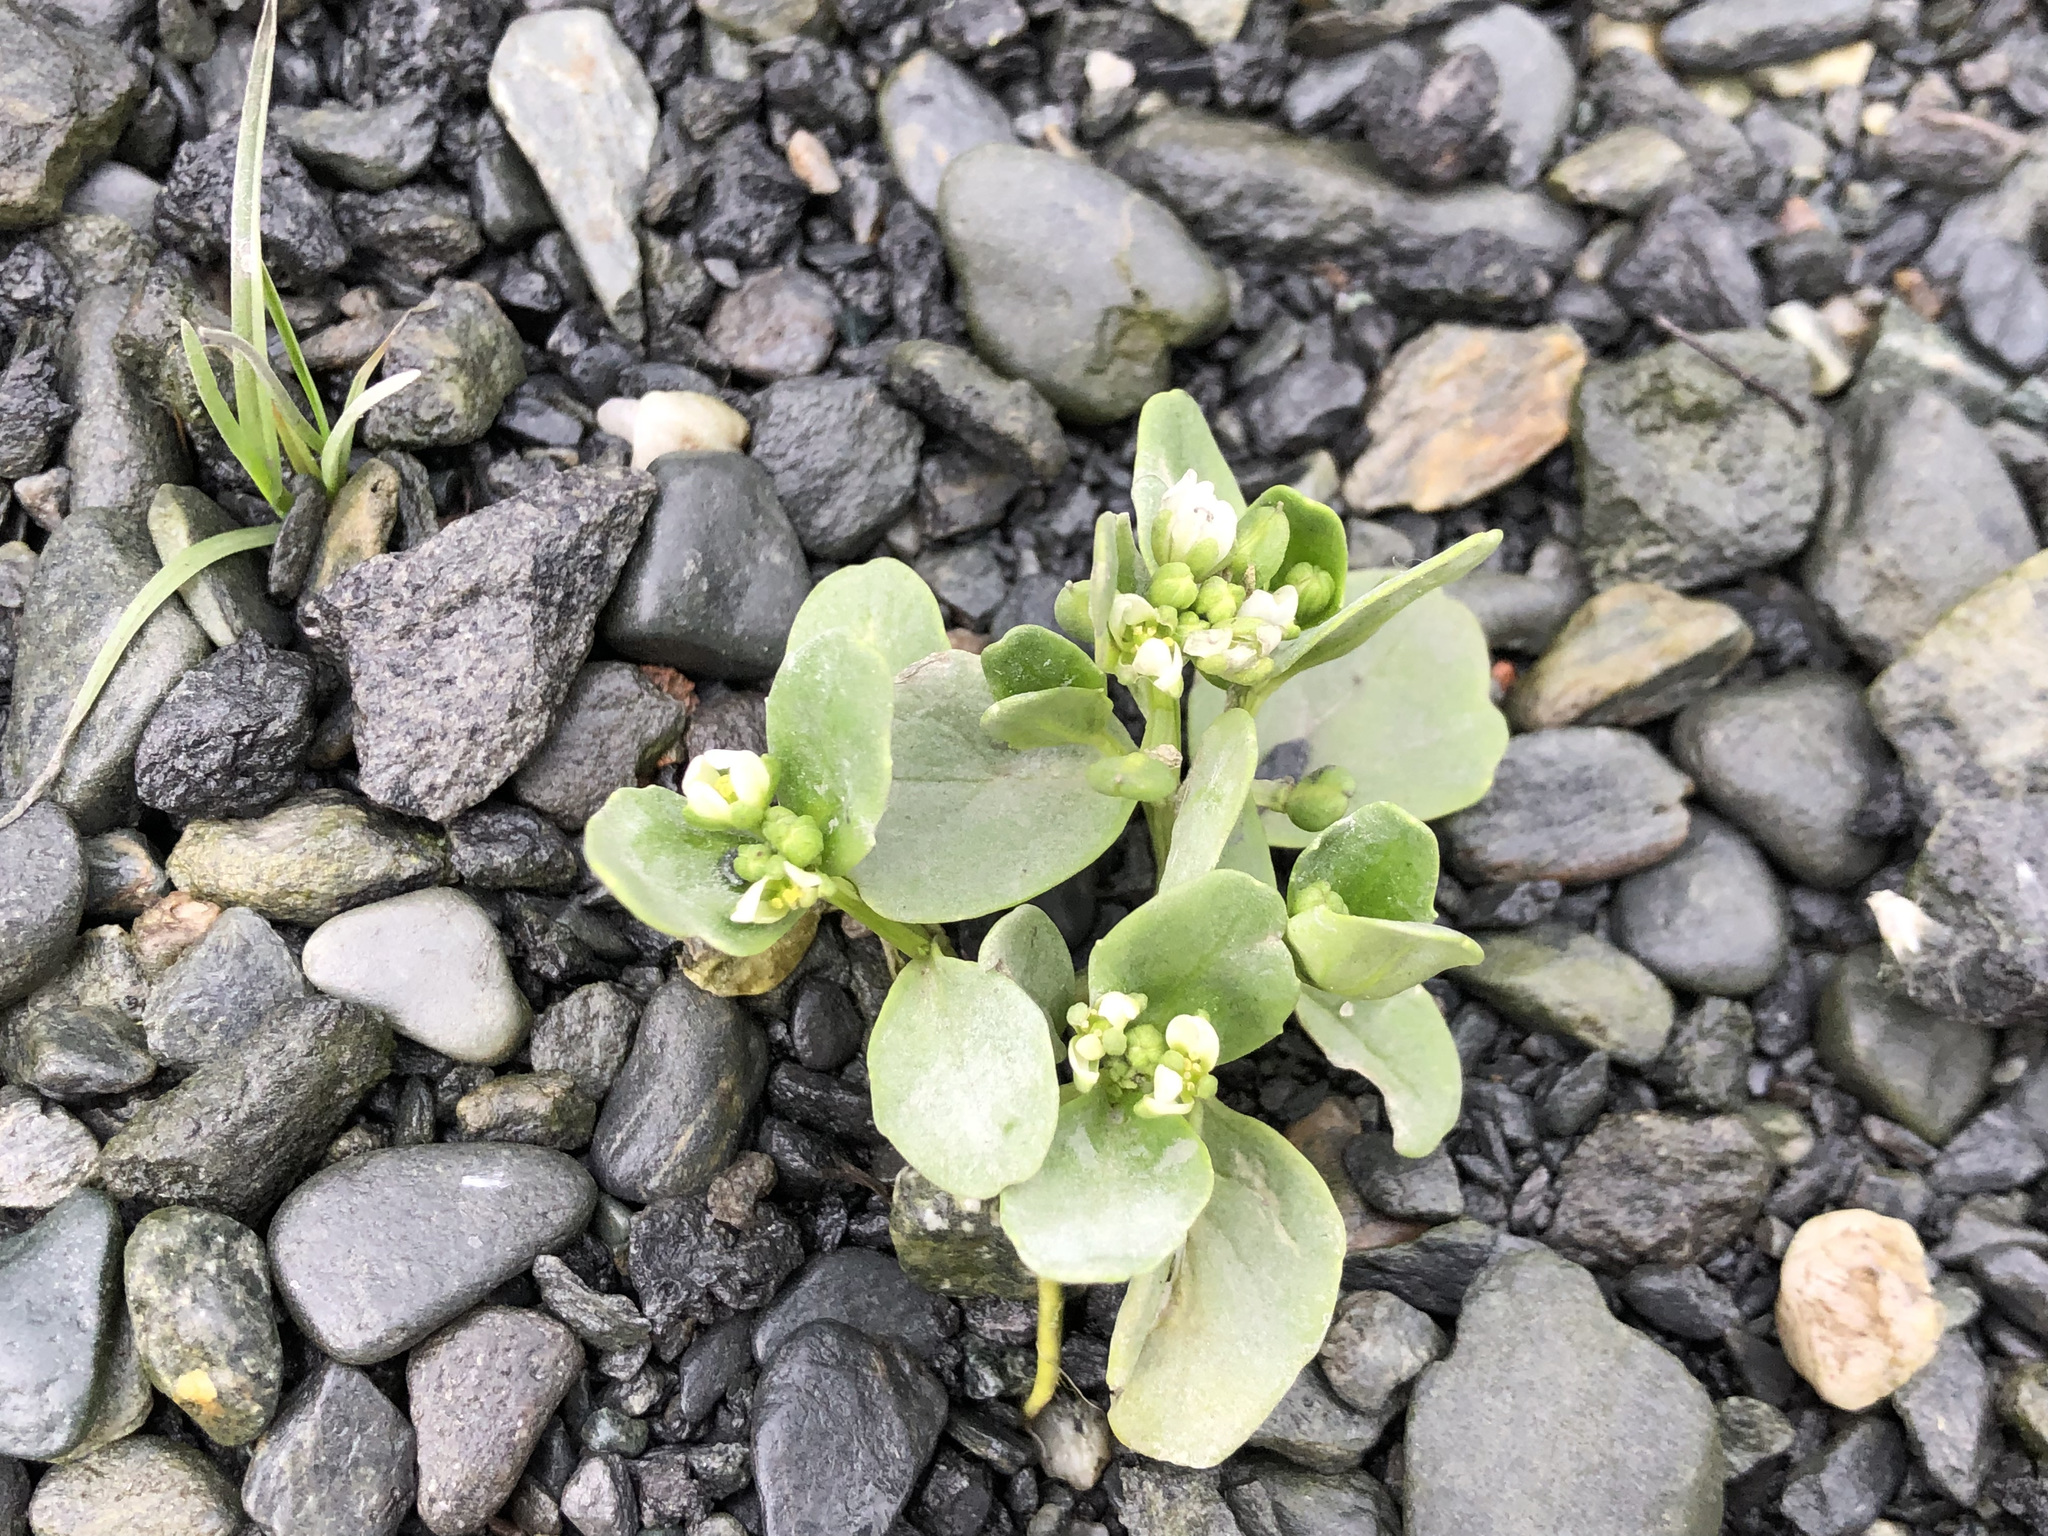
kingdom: Plantae
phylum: Tracheophyta
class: Magnoliopsida
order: Brassicales
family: Brassicaceae
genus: Cochlearia
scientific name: Cochlearia groenlandica
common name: Danish scurvygrass
